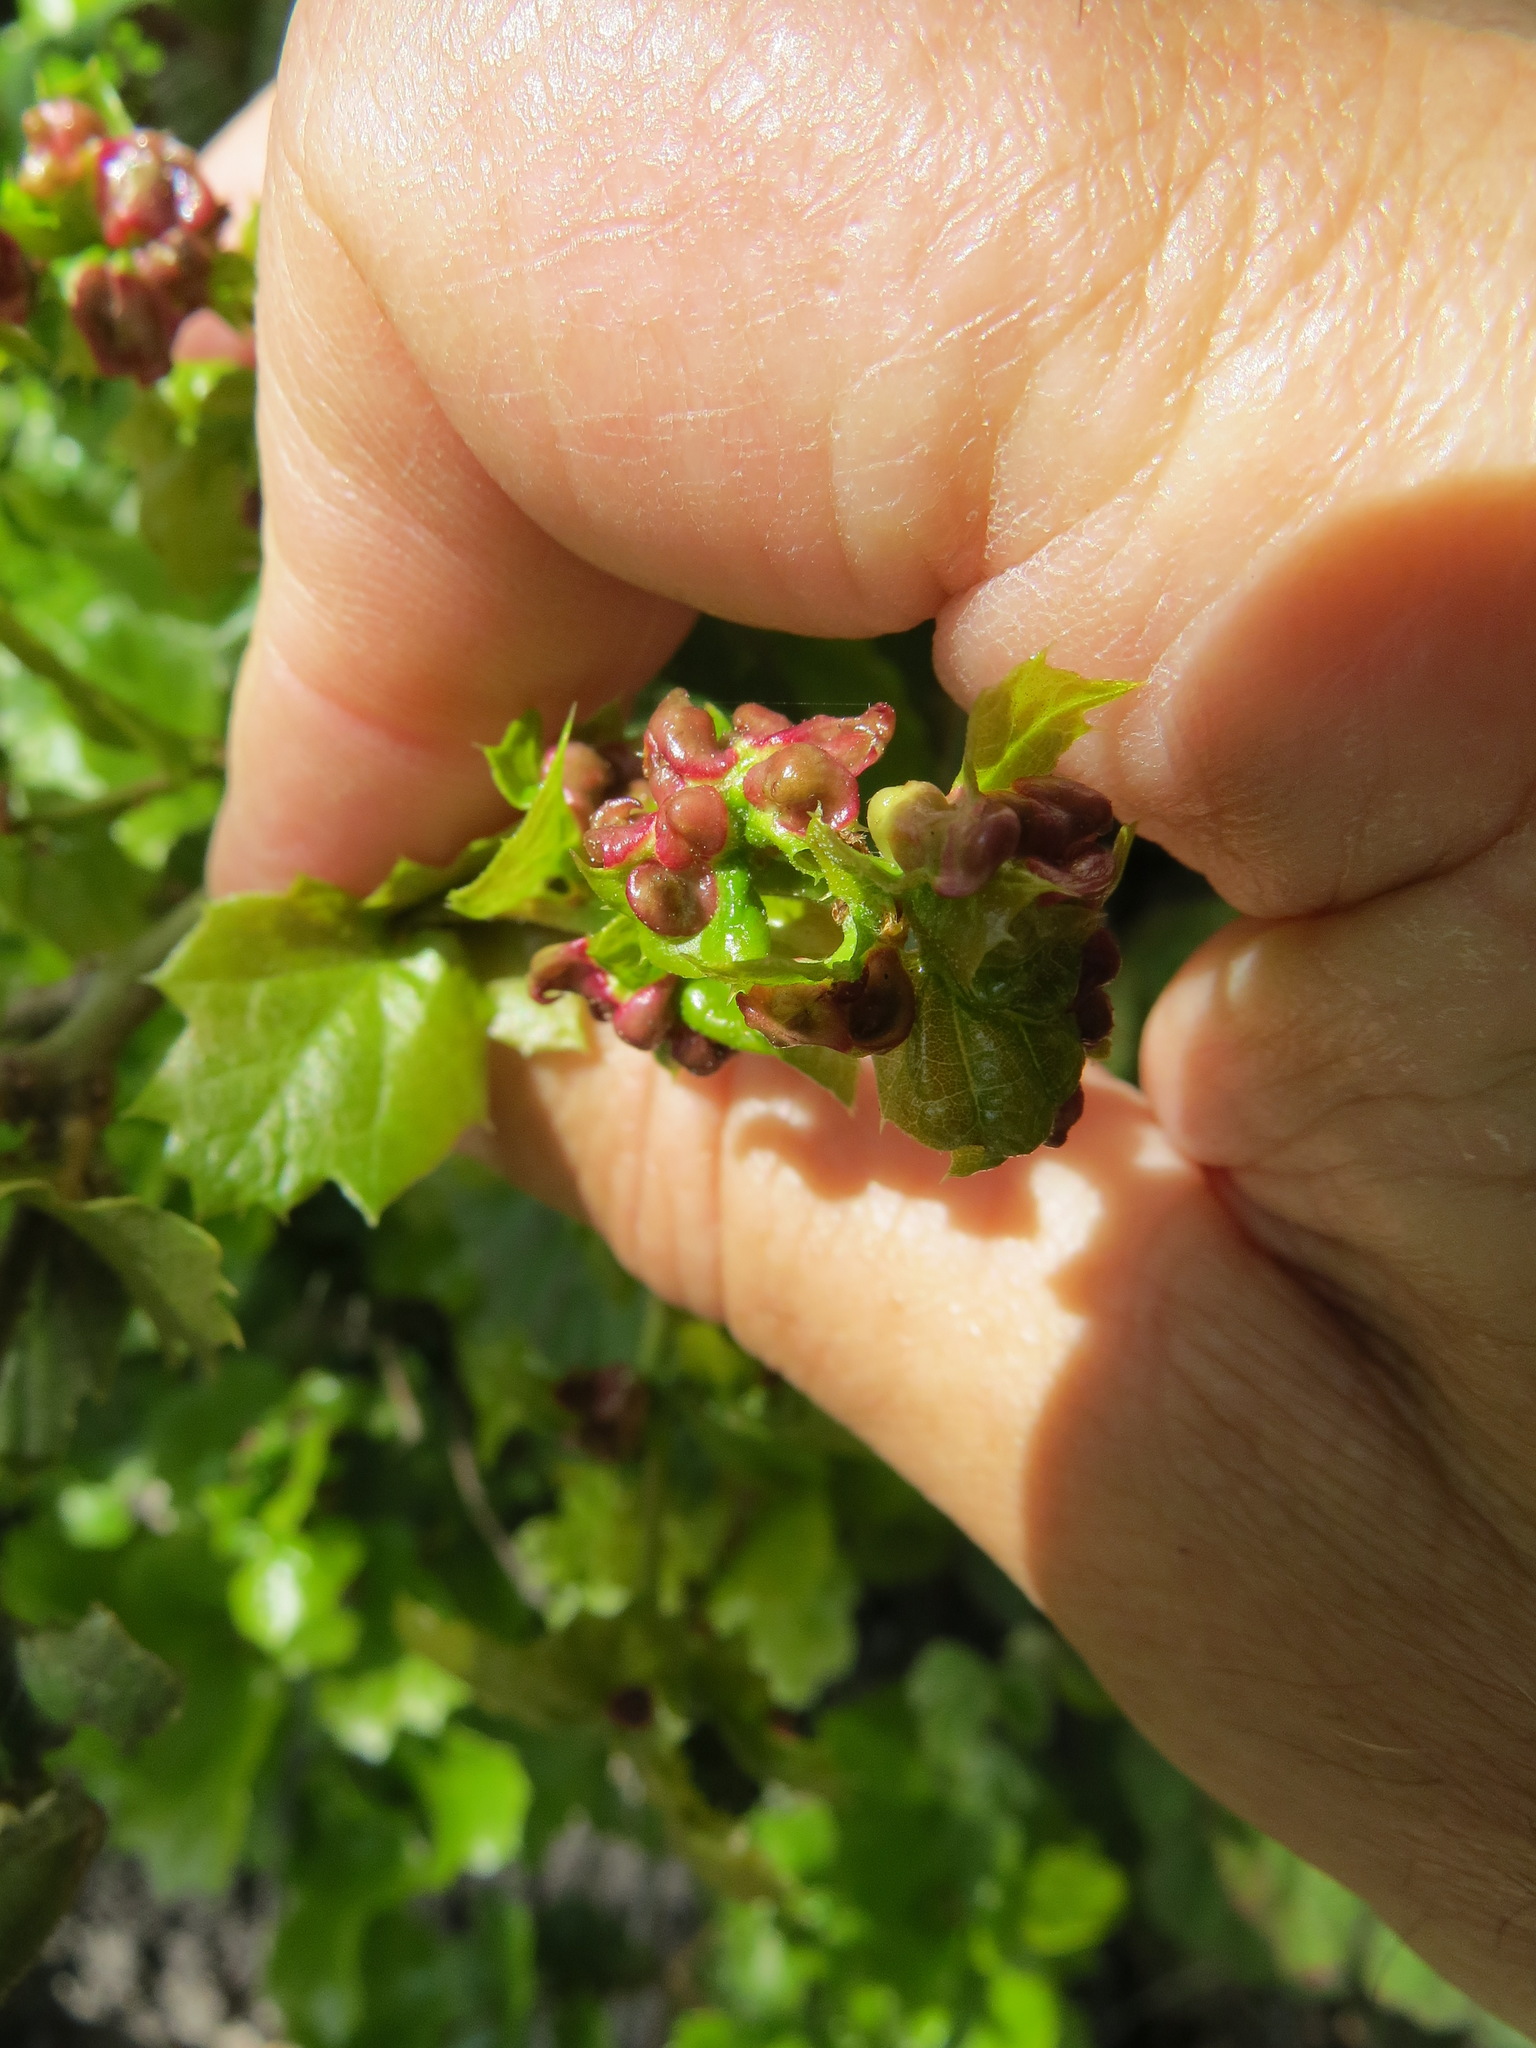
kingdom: Animalia
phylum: Arthropoda
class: Insecta
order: Hymenoptera
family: Cynipidae
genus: Dryocosmus
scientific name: Dryocosmus
